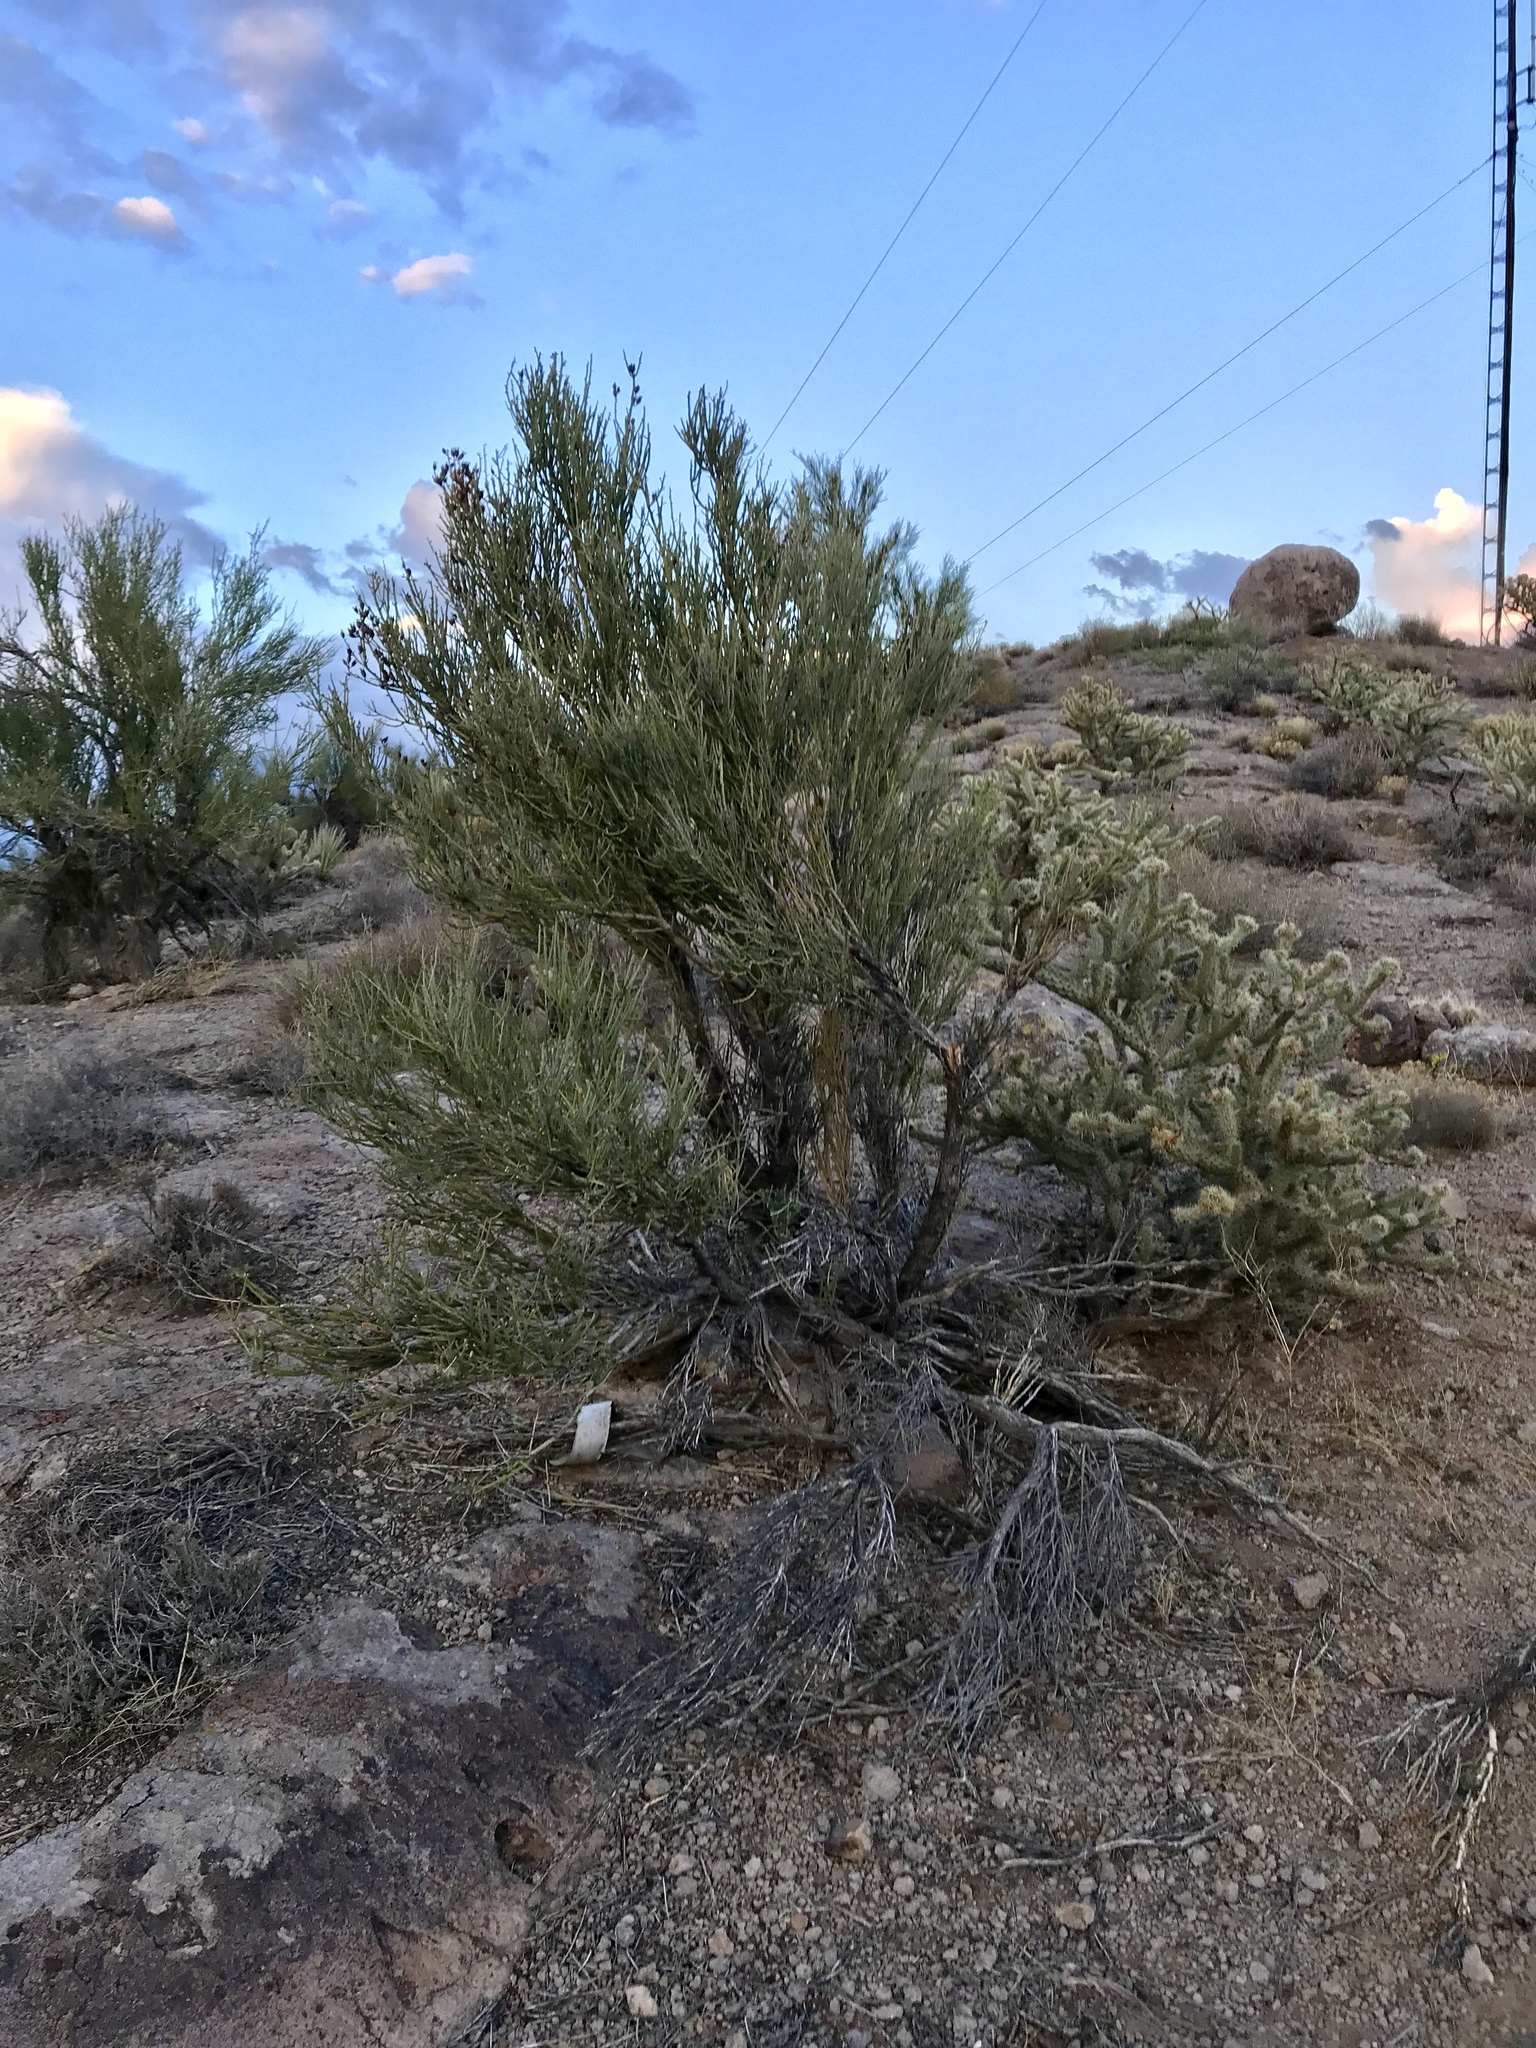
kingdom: Plantae
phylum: Tracheophyta
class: Magnoliopsida
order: Celastrales
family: Celastraceae
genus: Canotia
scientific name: Canotia holacantha
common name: Crucifixion thorns
